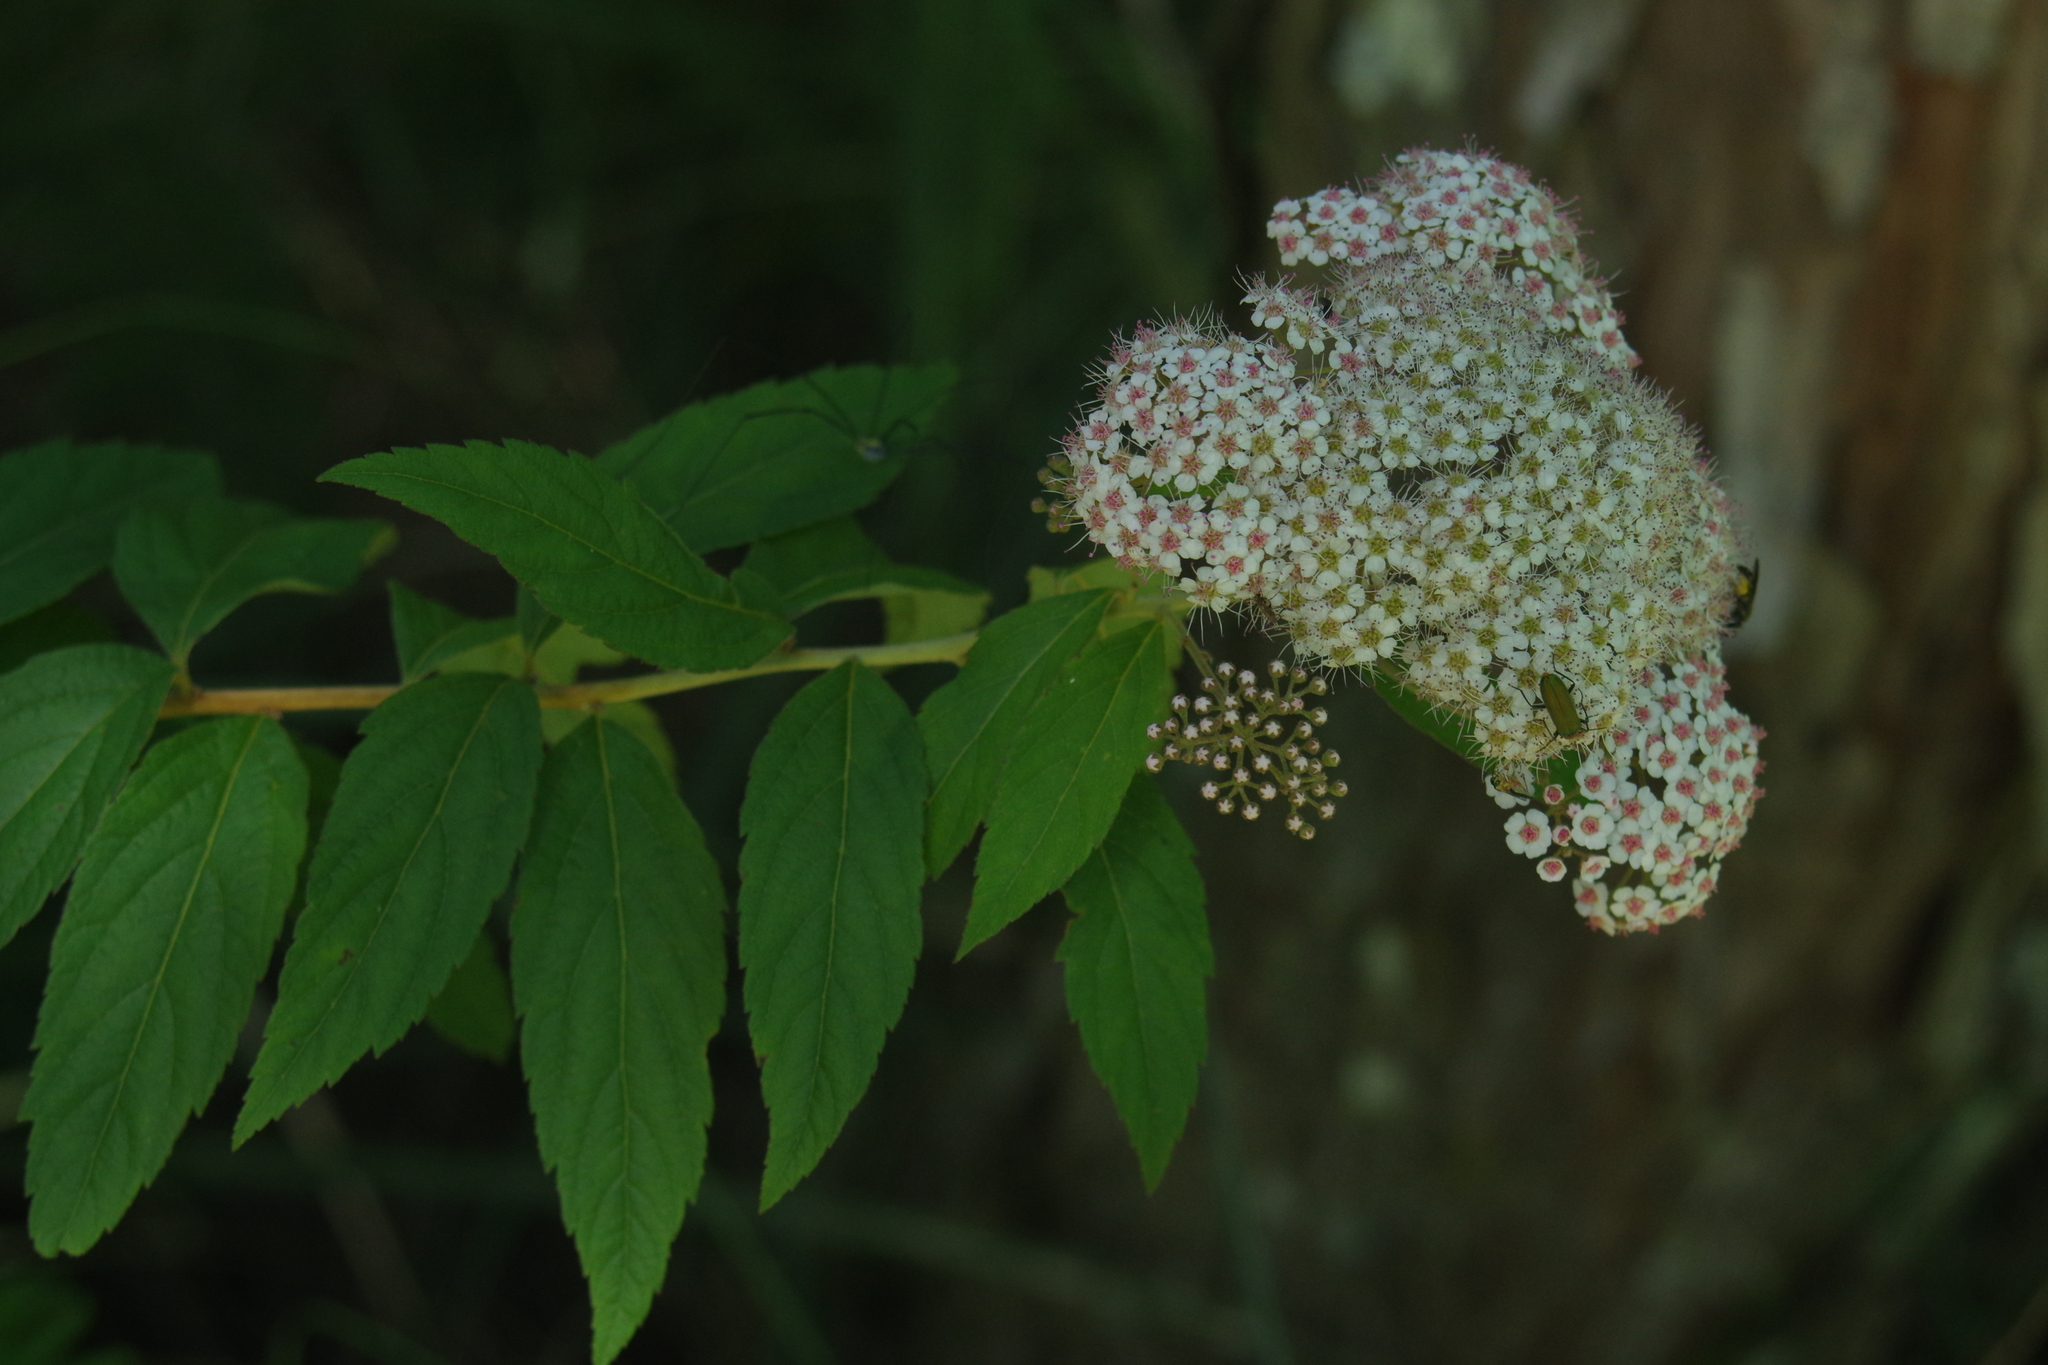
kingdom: Plantae
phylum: Tracheophyta
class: Magnoliopsida
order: Rosales
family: Rosaceae
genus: Spiraea
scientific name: Spiraea japonica
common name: Japanese spiraea
